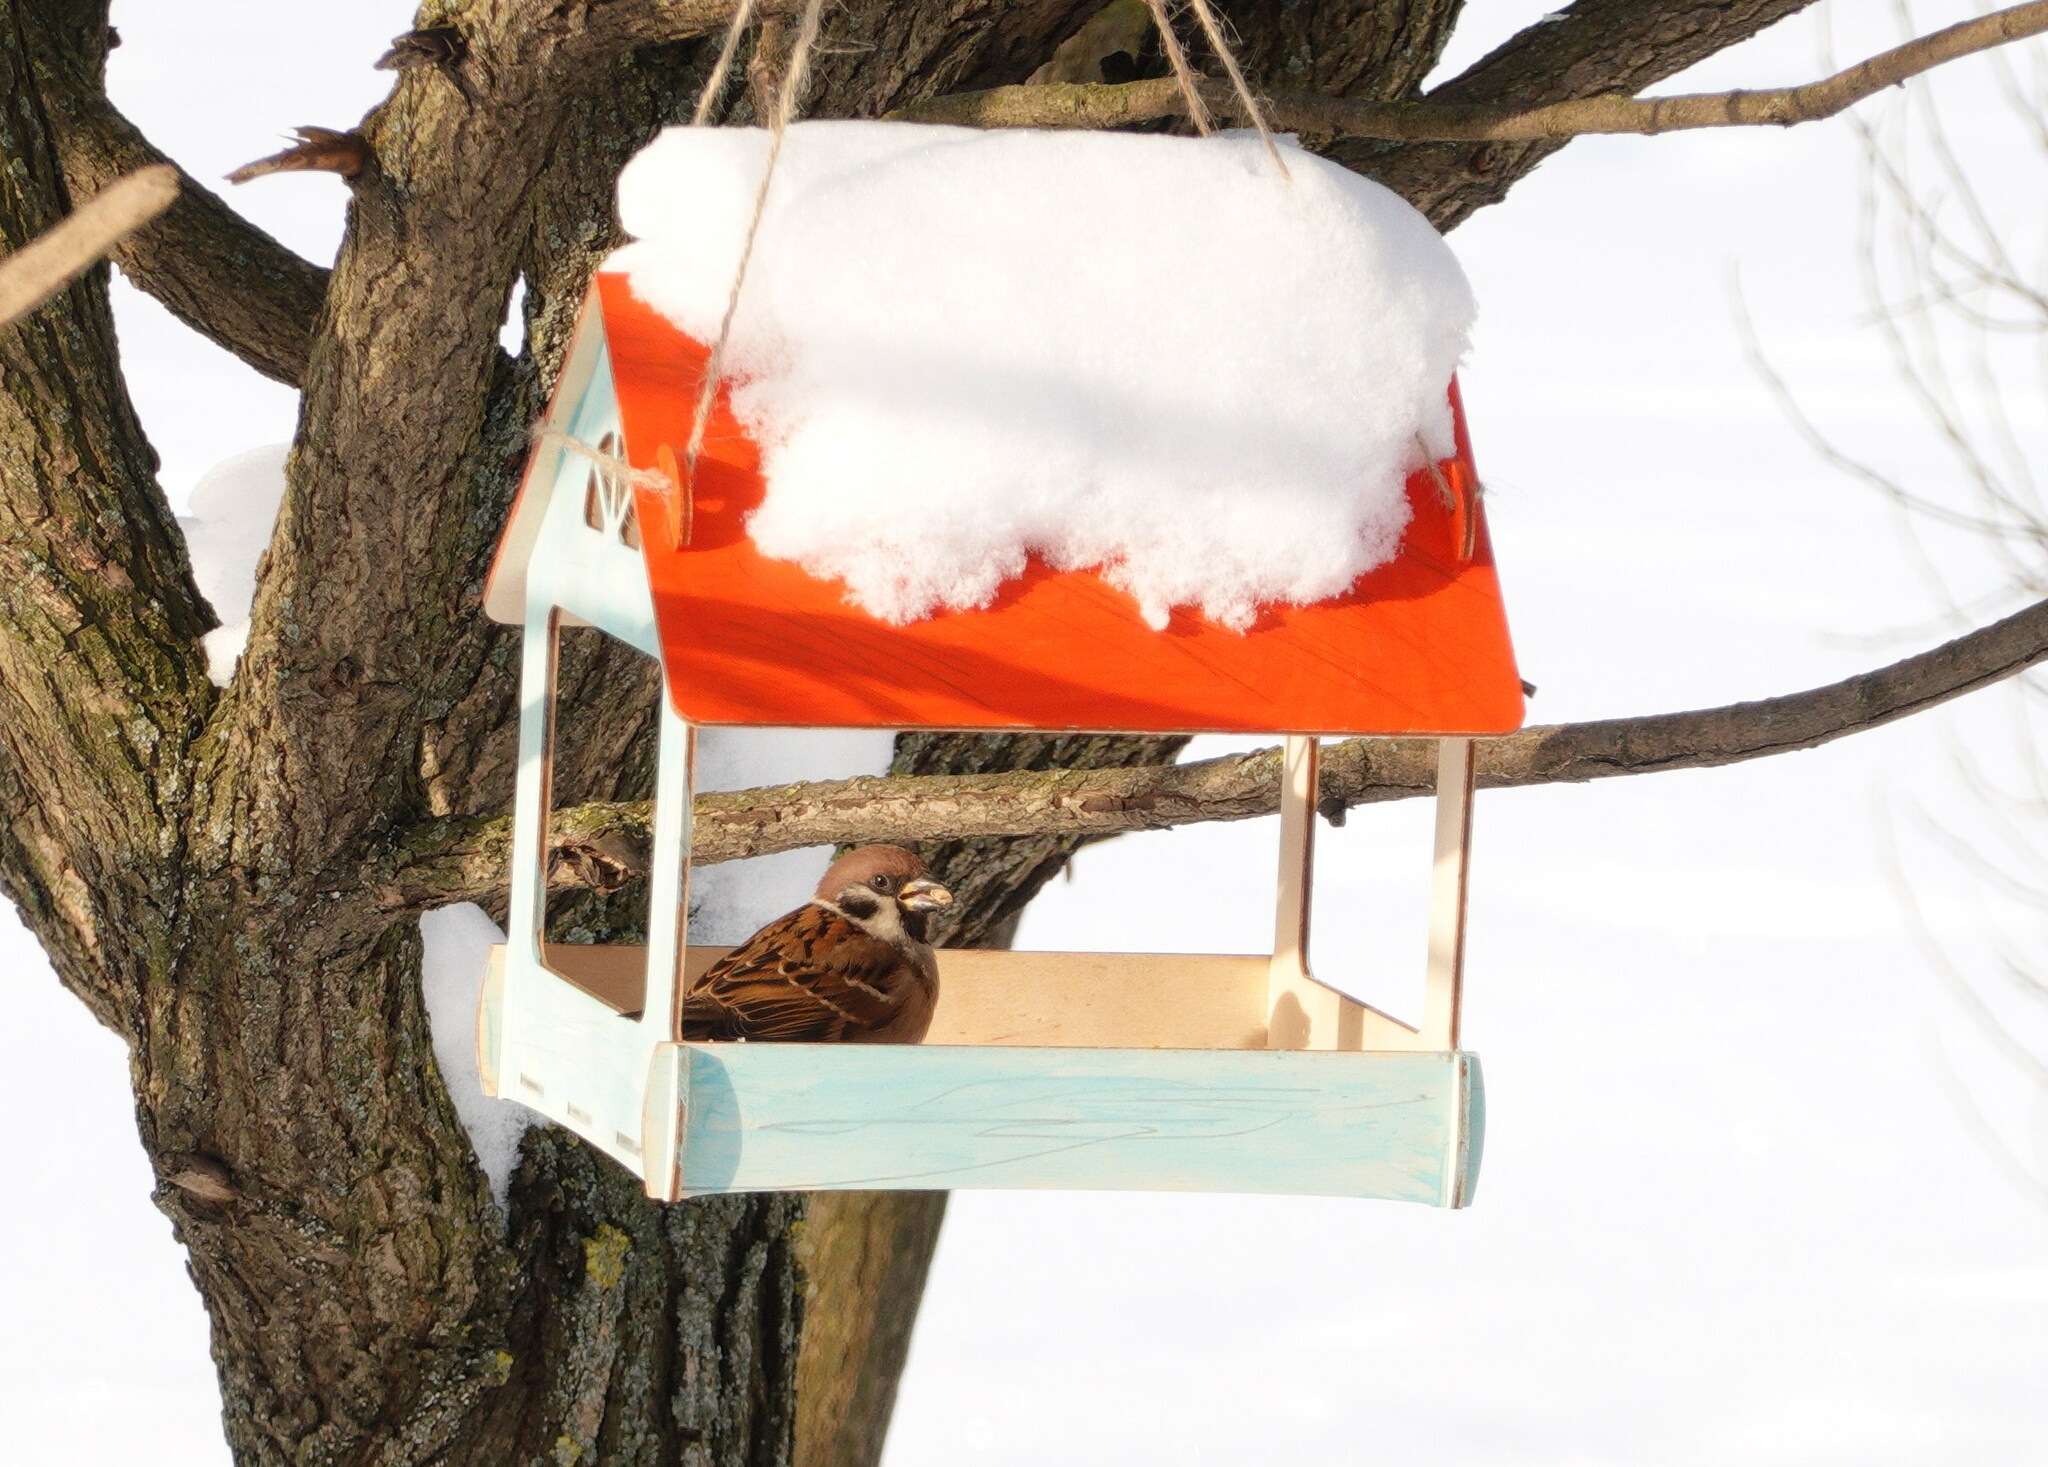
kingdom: Animalia
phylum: Chordata
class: Aves
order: Passeriformes
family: Passeridae
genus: Passer
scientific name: Passer montanus
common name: Eurasian tree sparrow
